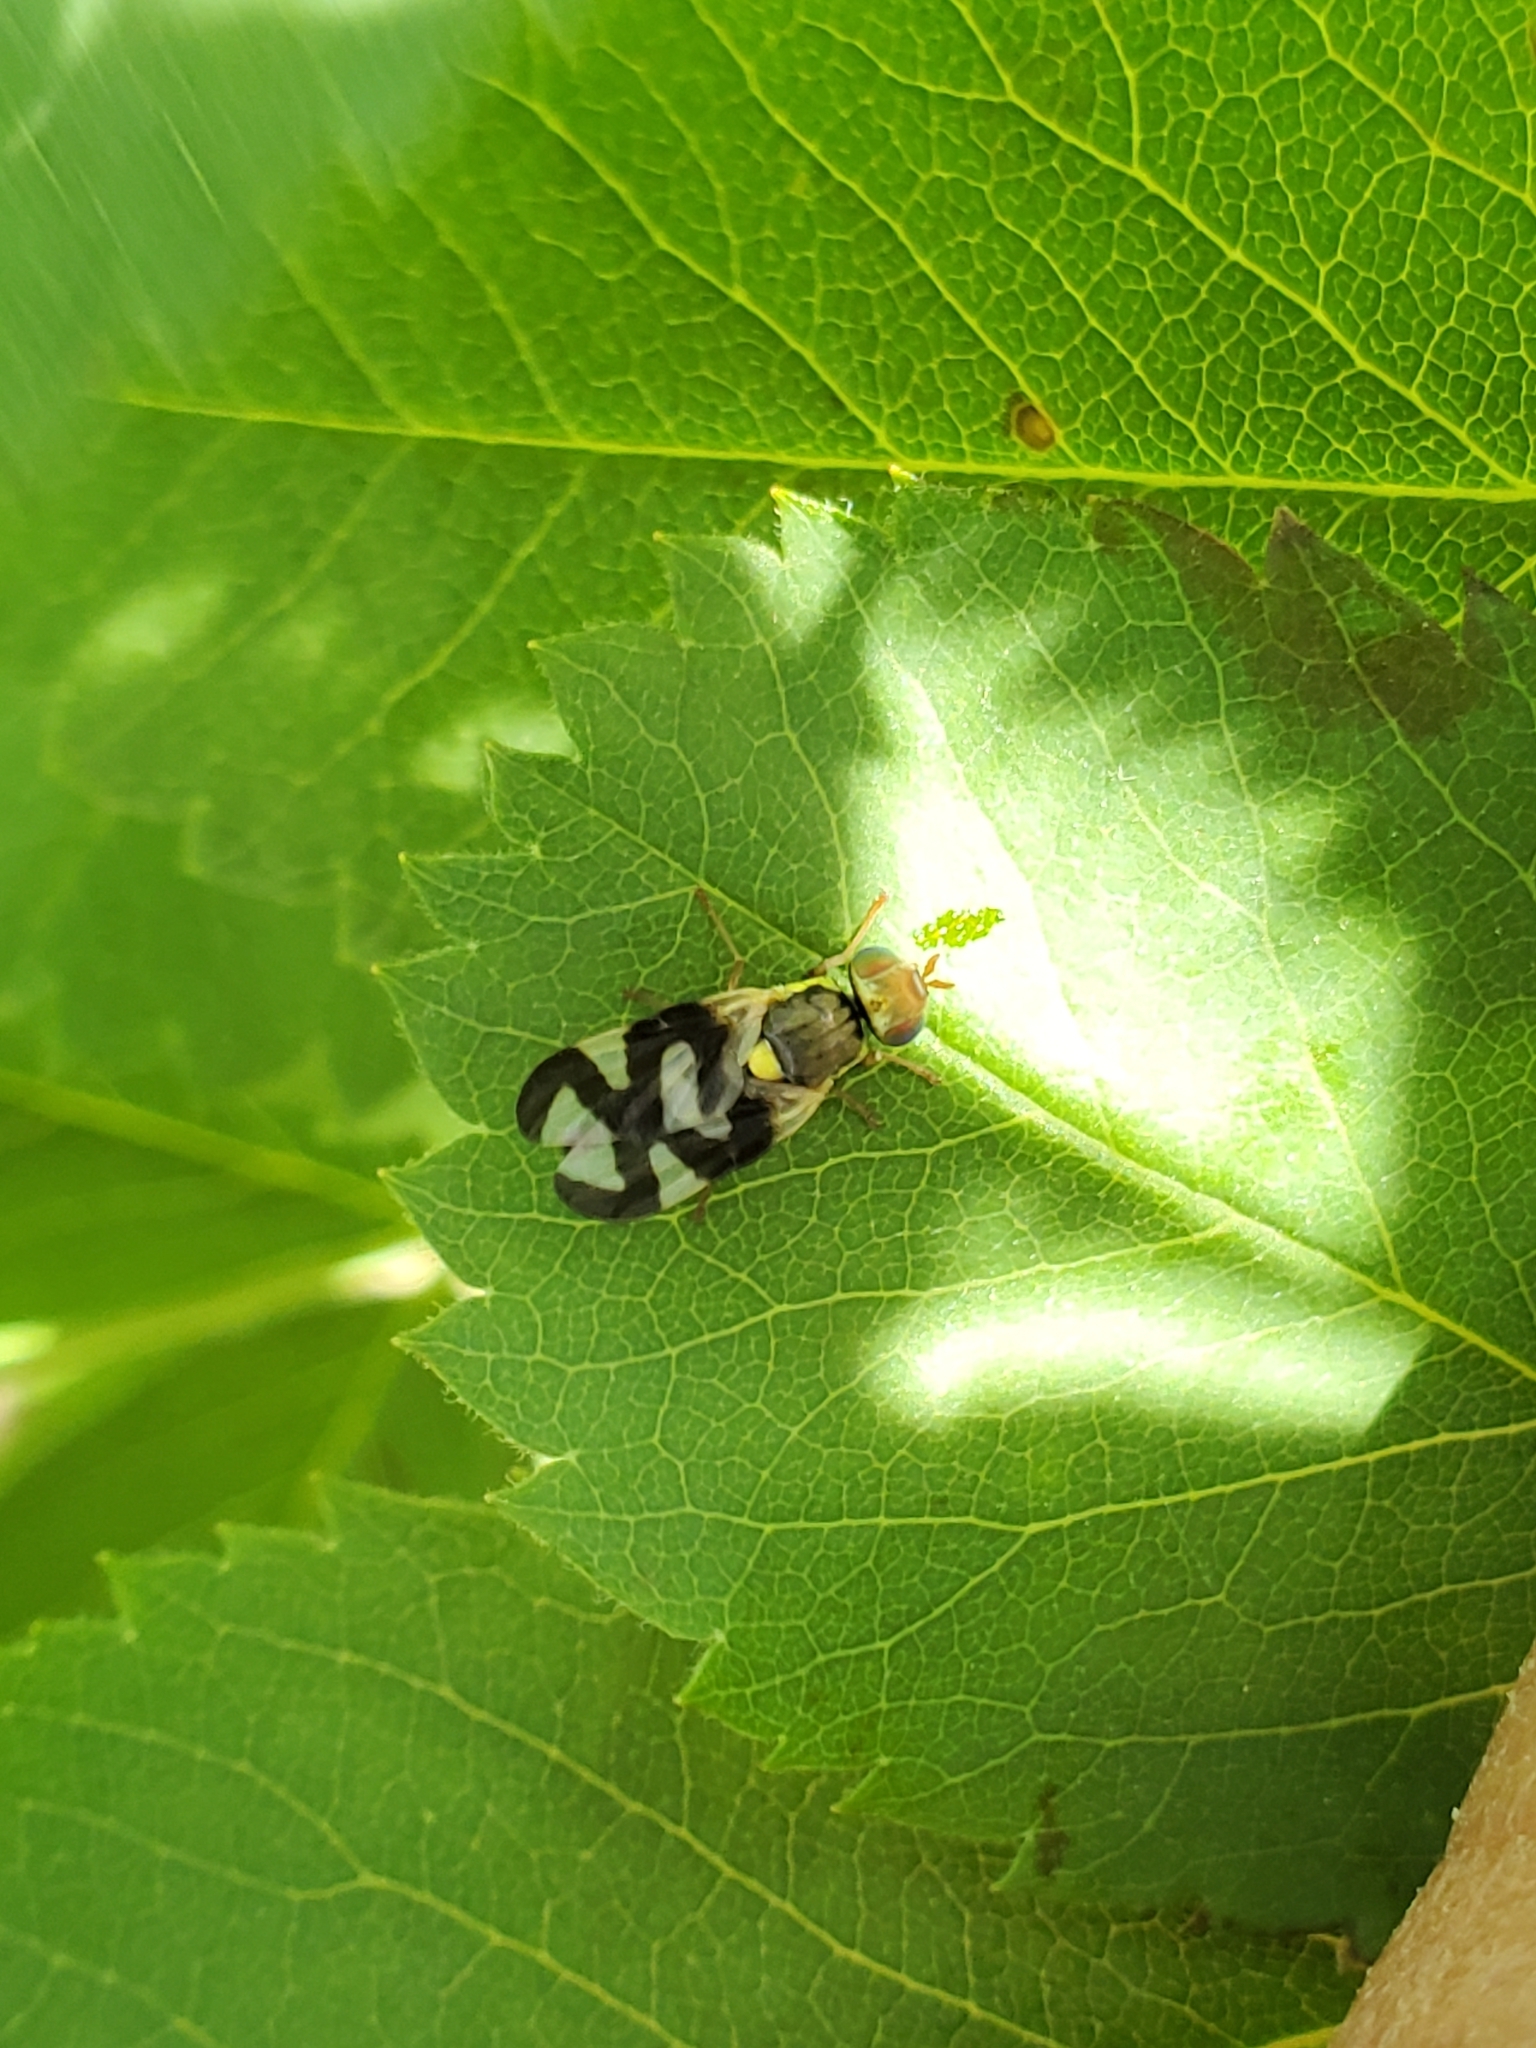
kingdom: Animalia
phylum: Arthropoda
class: Insecta
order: Diptera
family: Tephritidae
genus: Urophora
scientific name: Urophora cardui
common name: Fruit fly
